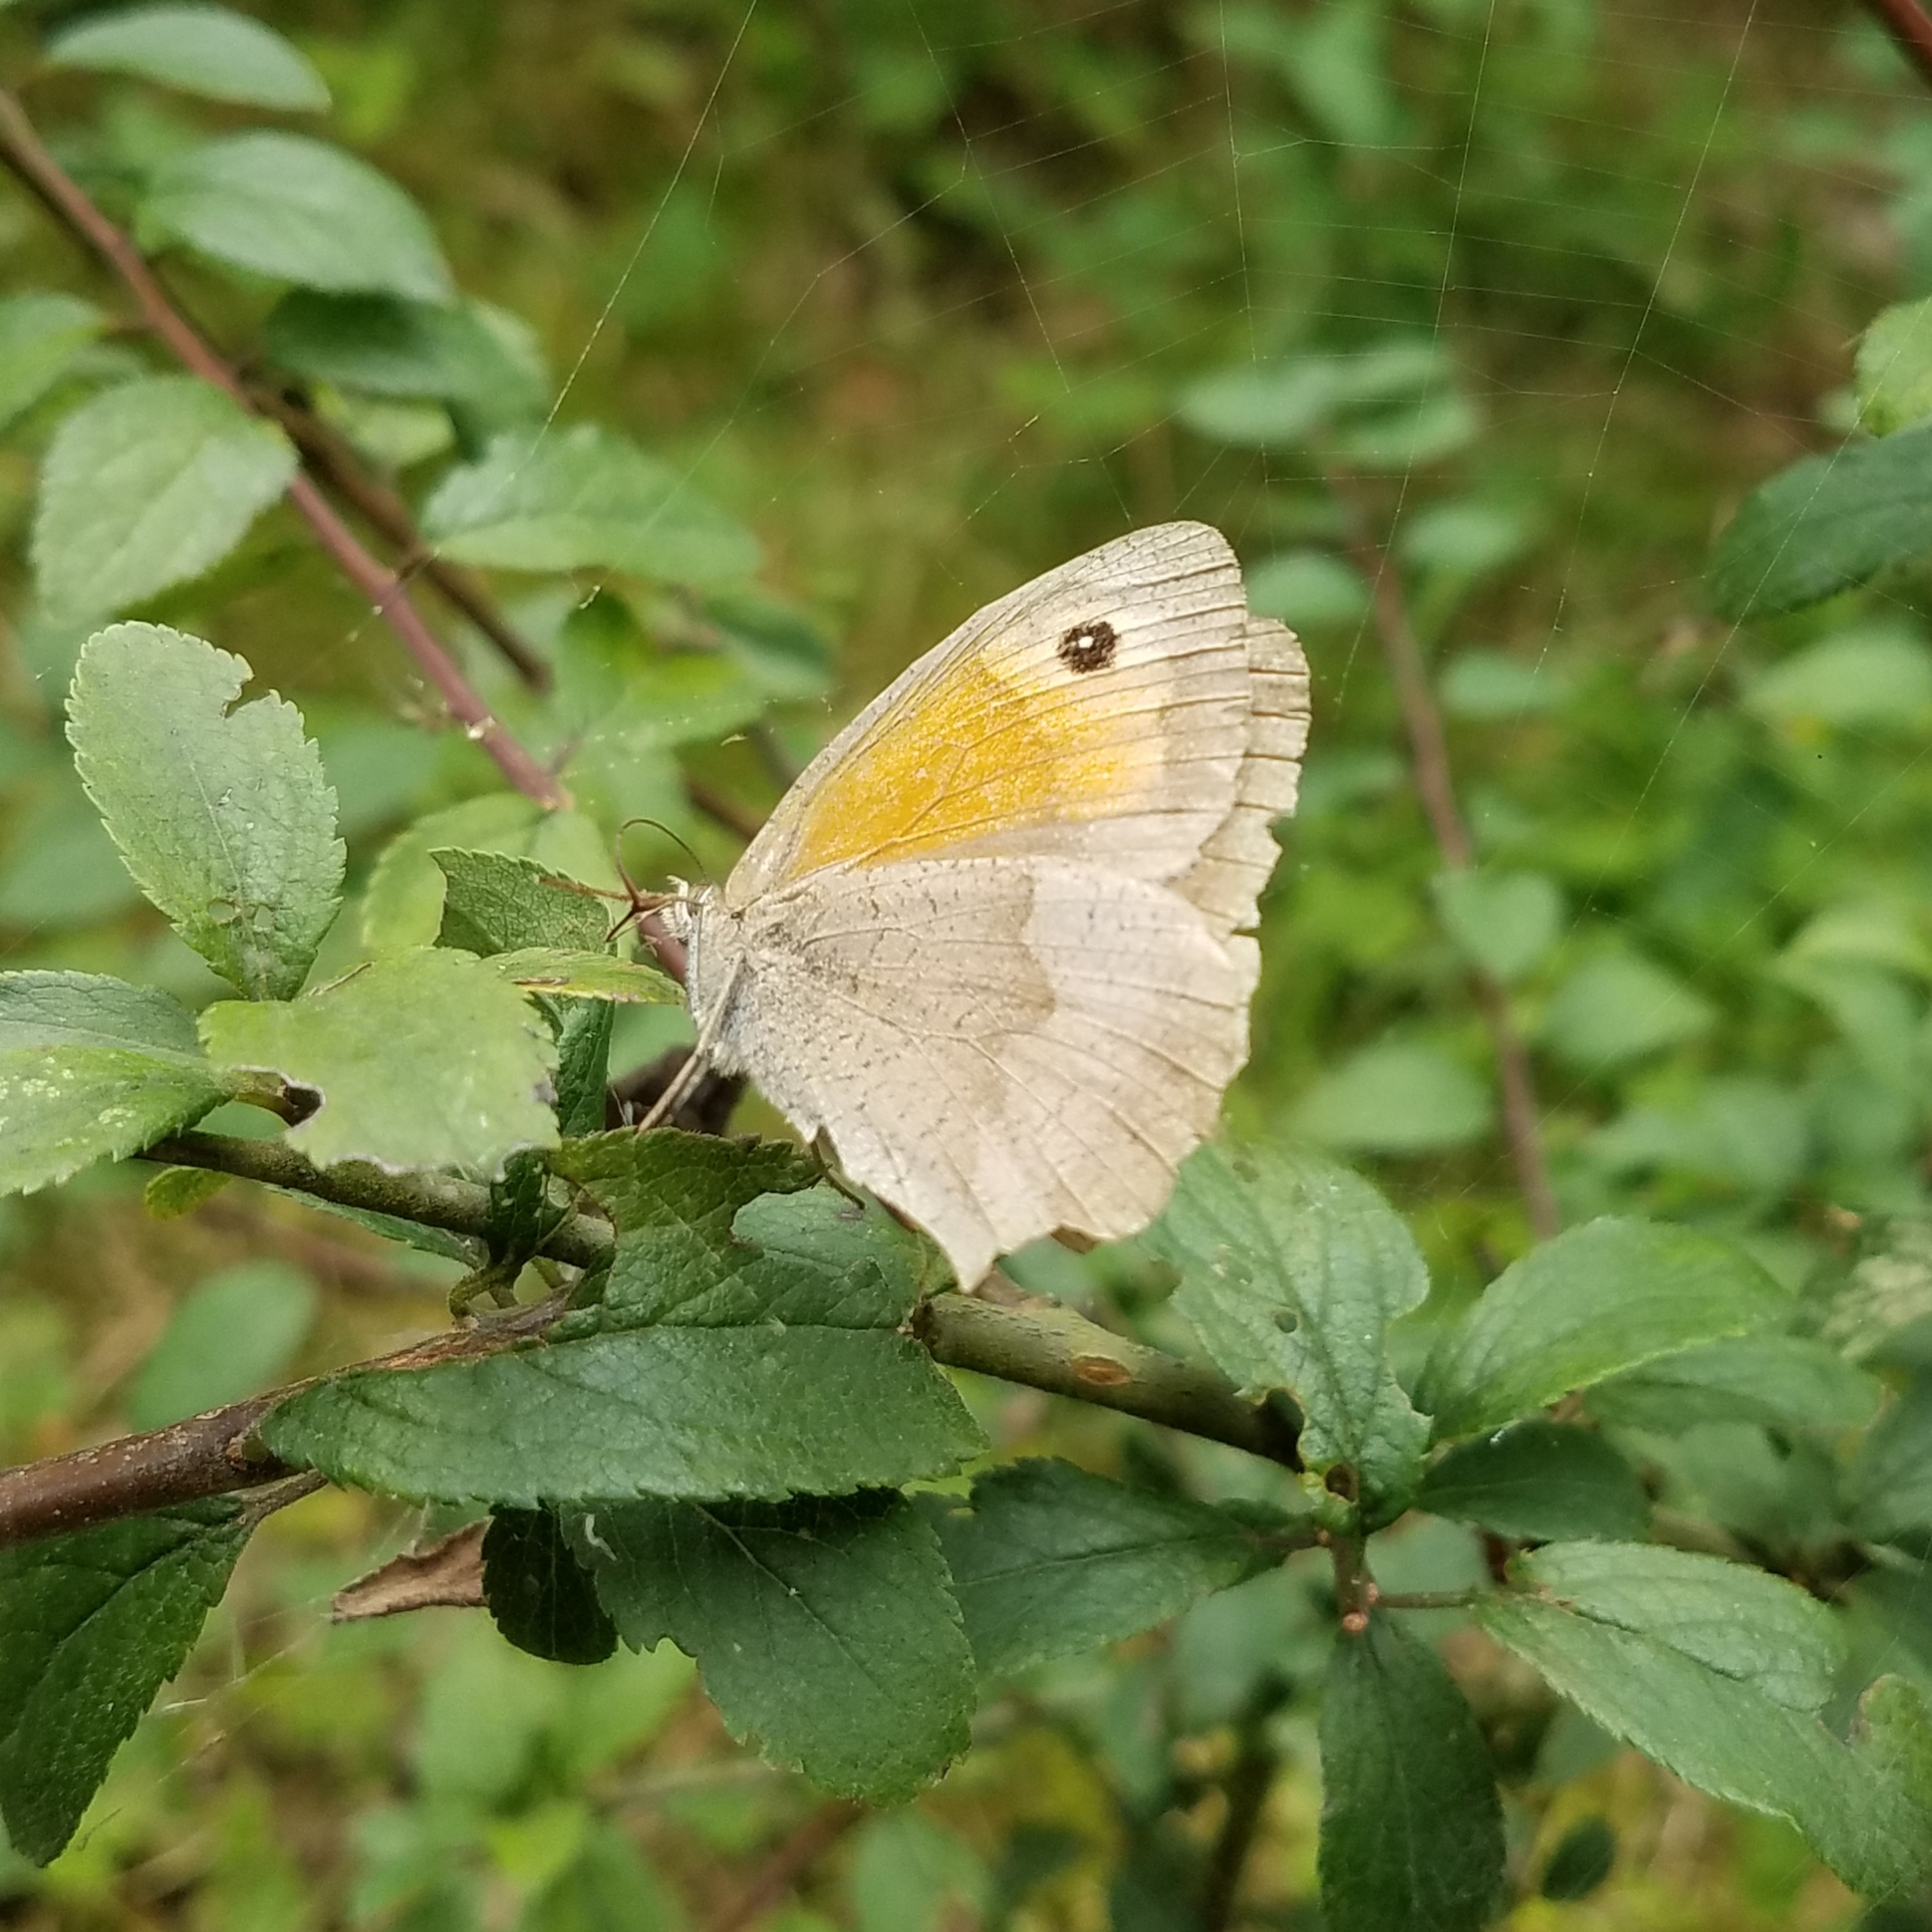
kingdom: Animalia
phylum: Arthropoda
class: Insecta
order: Lepidoptera
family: Nymphalidae
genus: Maniola
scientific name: Maniola jurtina
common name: Meadow brown
